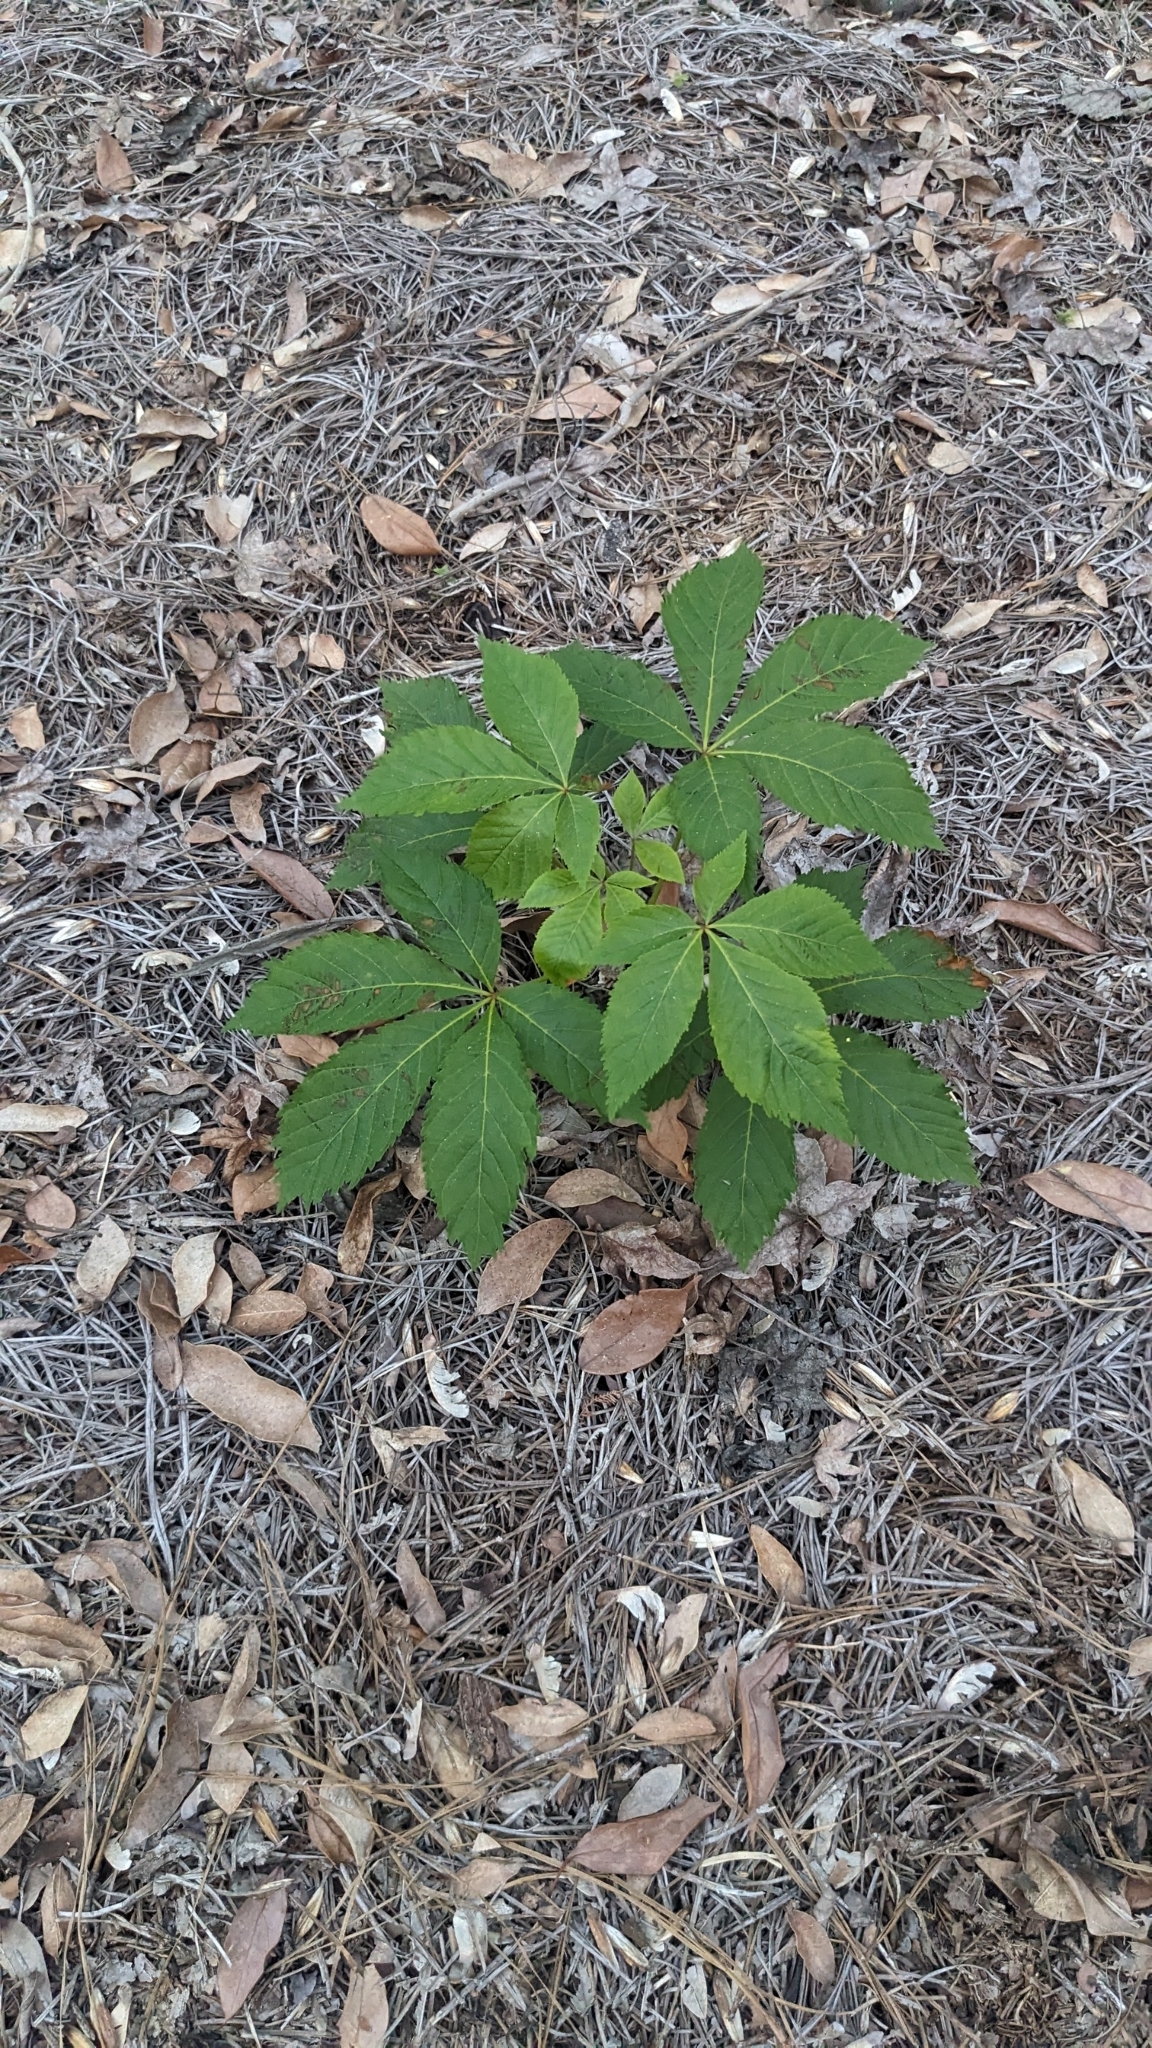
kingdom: Plantae
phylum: Tracheophyta
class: Magnoliopsida
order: Sapindales
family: Sapindaceae
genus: Aesculus
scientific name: Aesculus pavia
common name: Red buckeye
